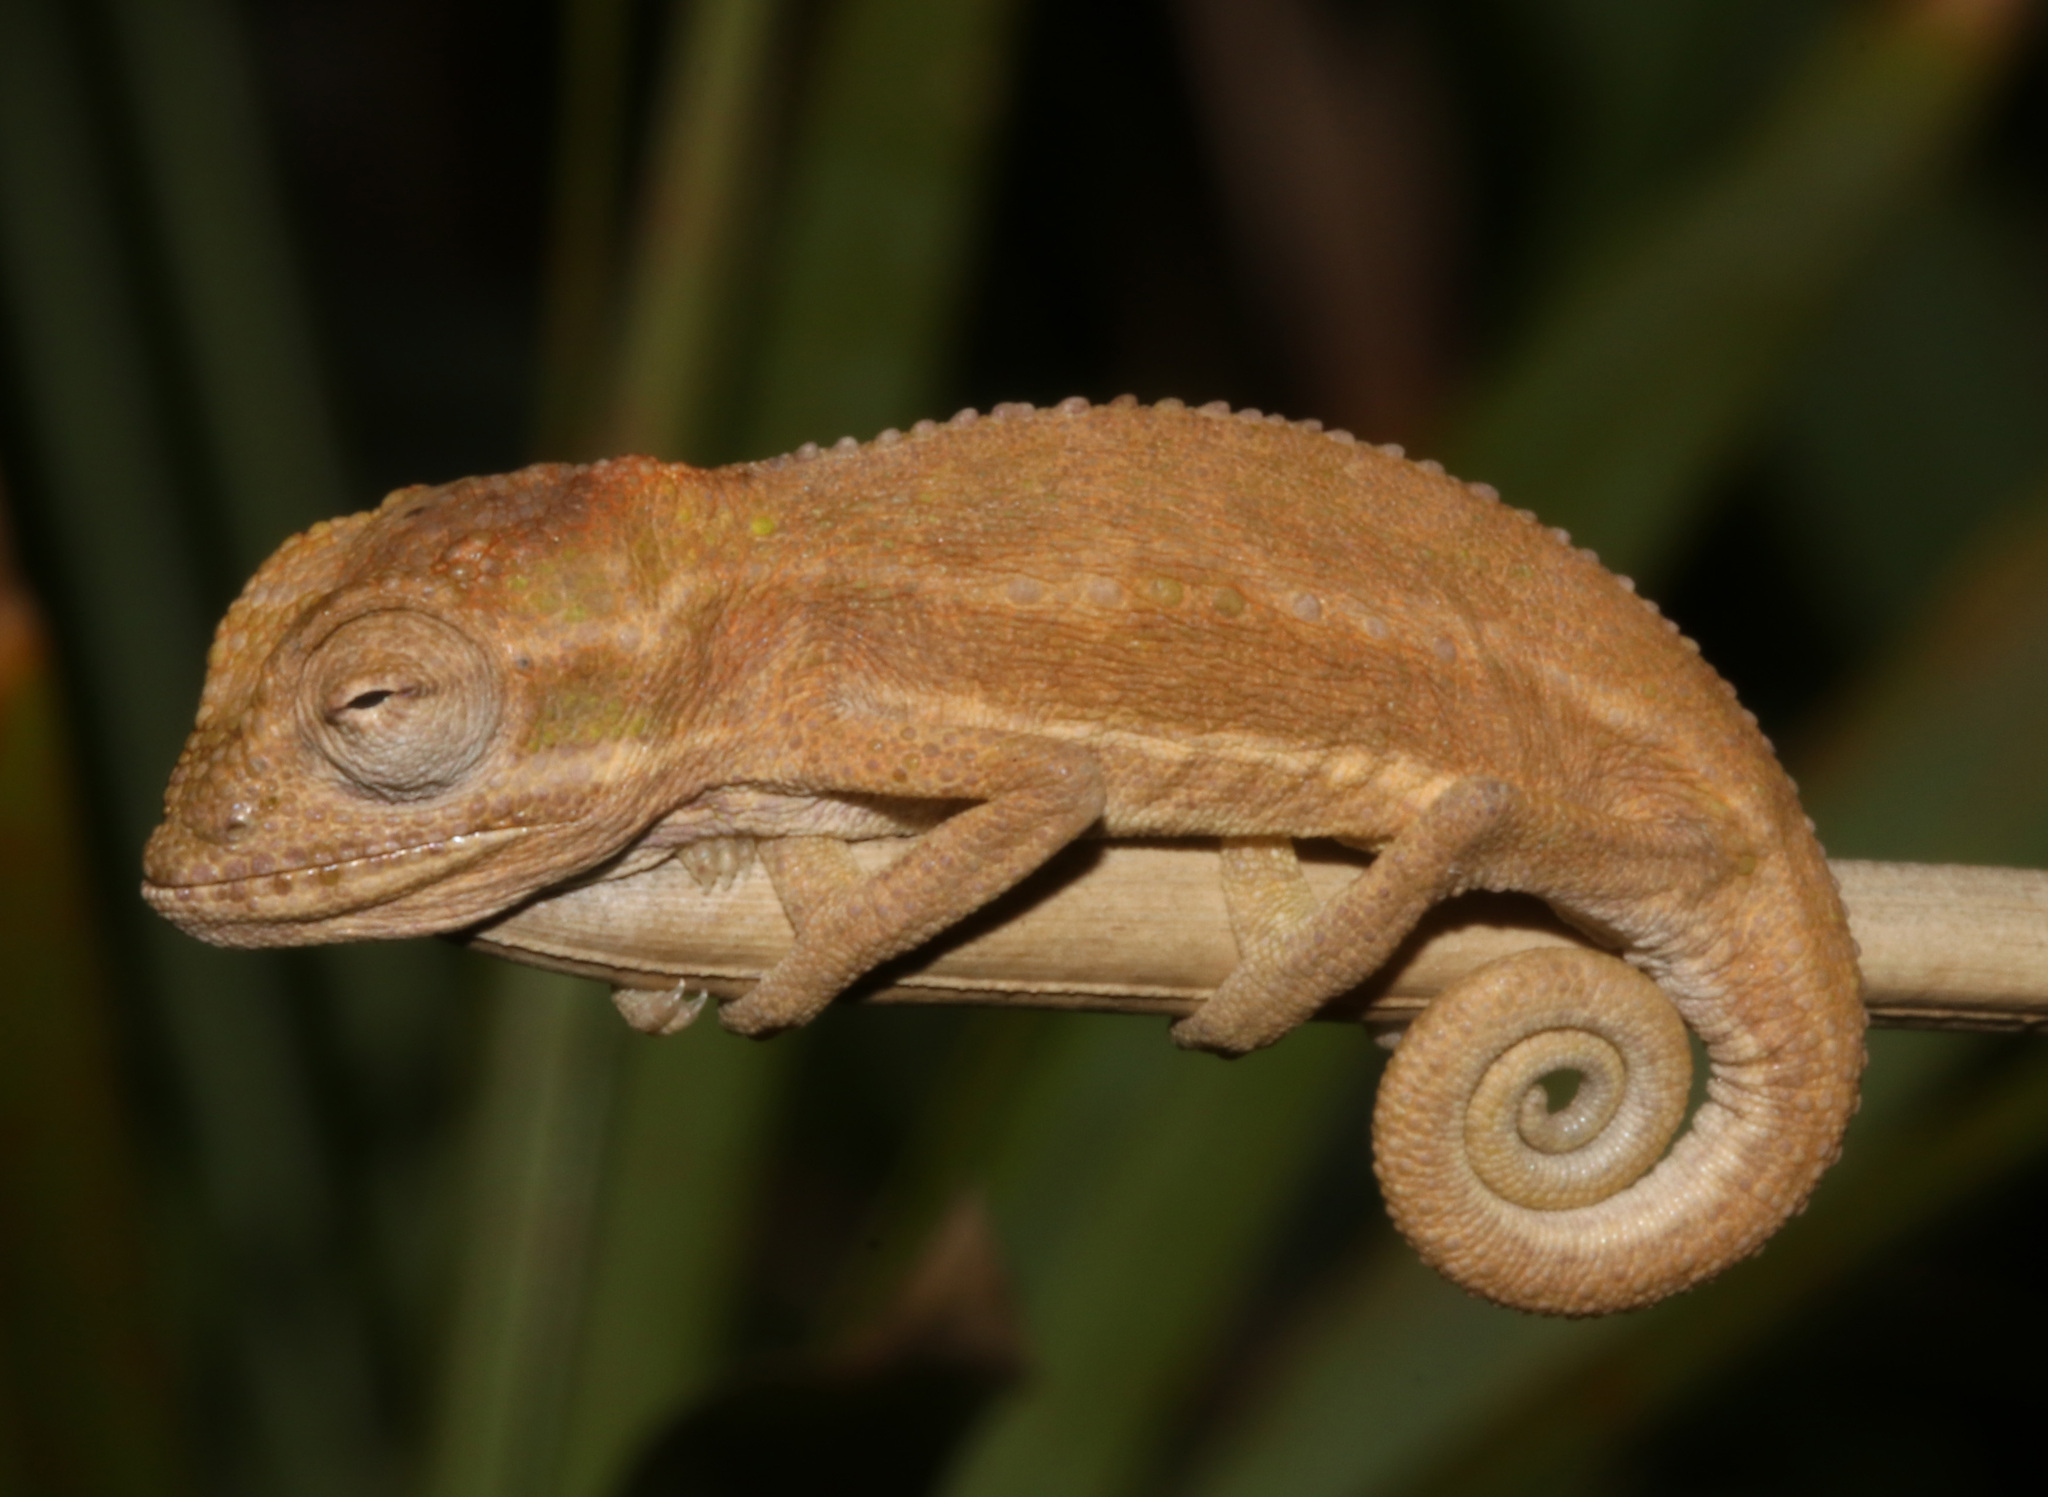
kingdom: Animalia
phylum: Chordata
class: Squamata
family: Chamaeleonidae
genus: Bradypodion
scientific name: Bradypodion pumilum
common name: Cape dwarf chameleon
